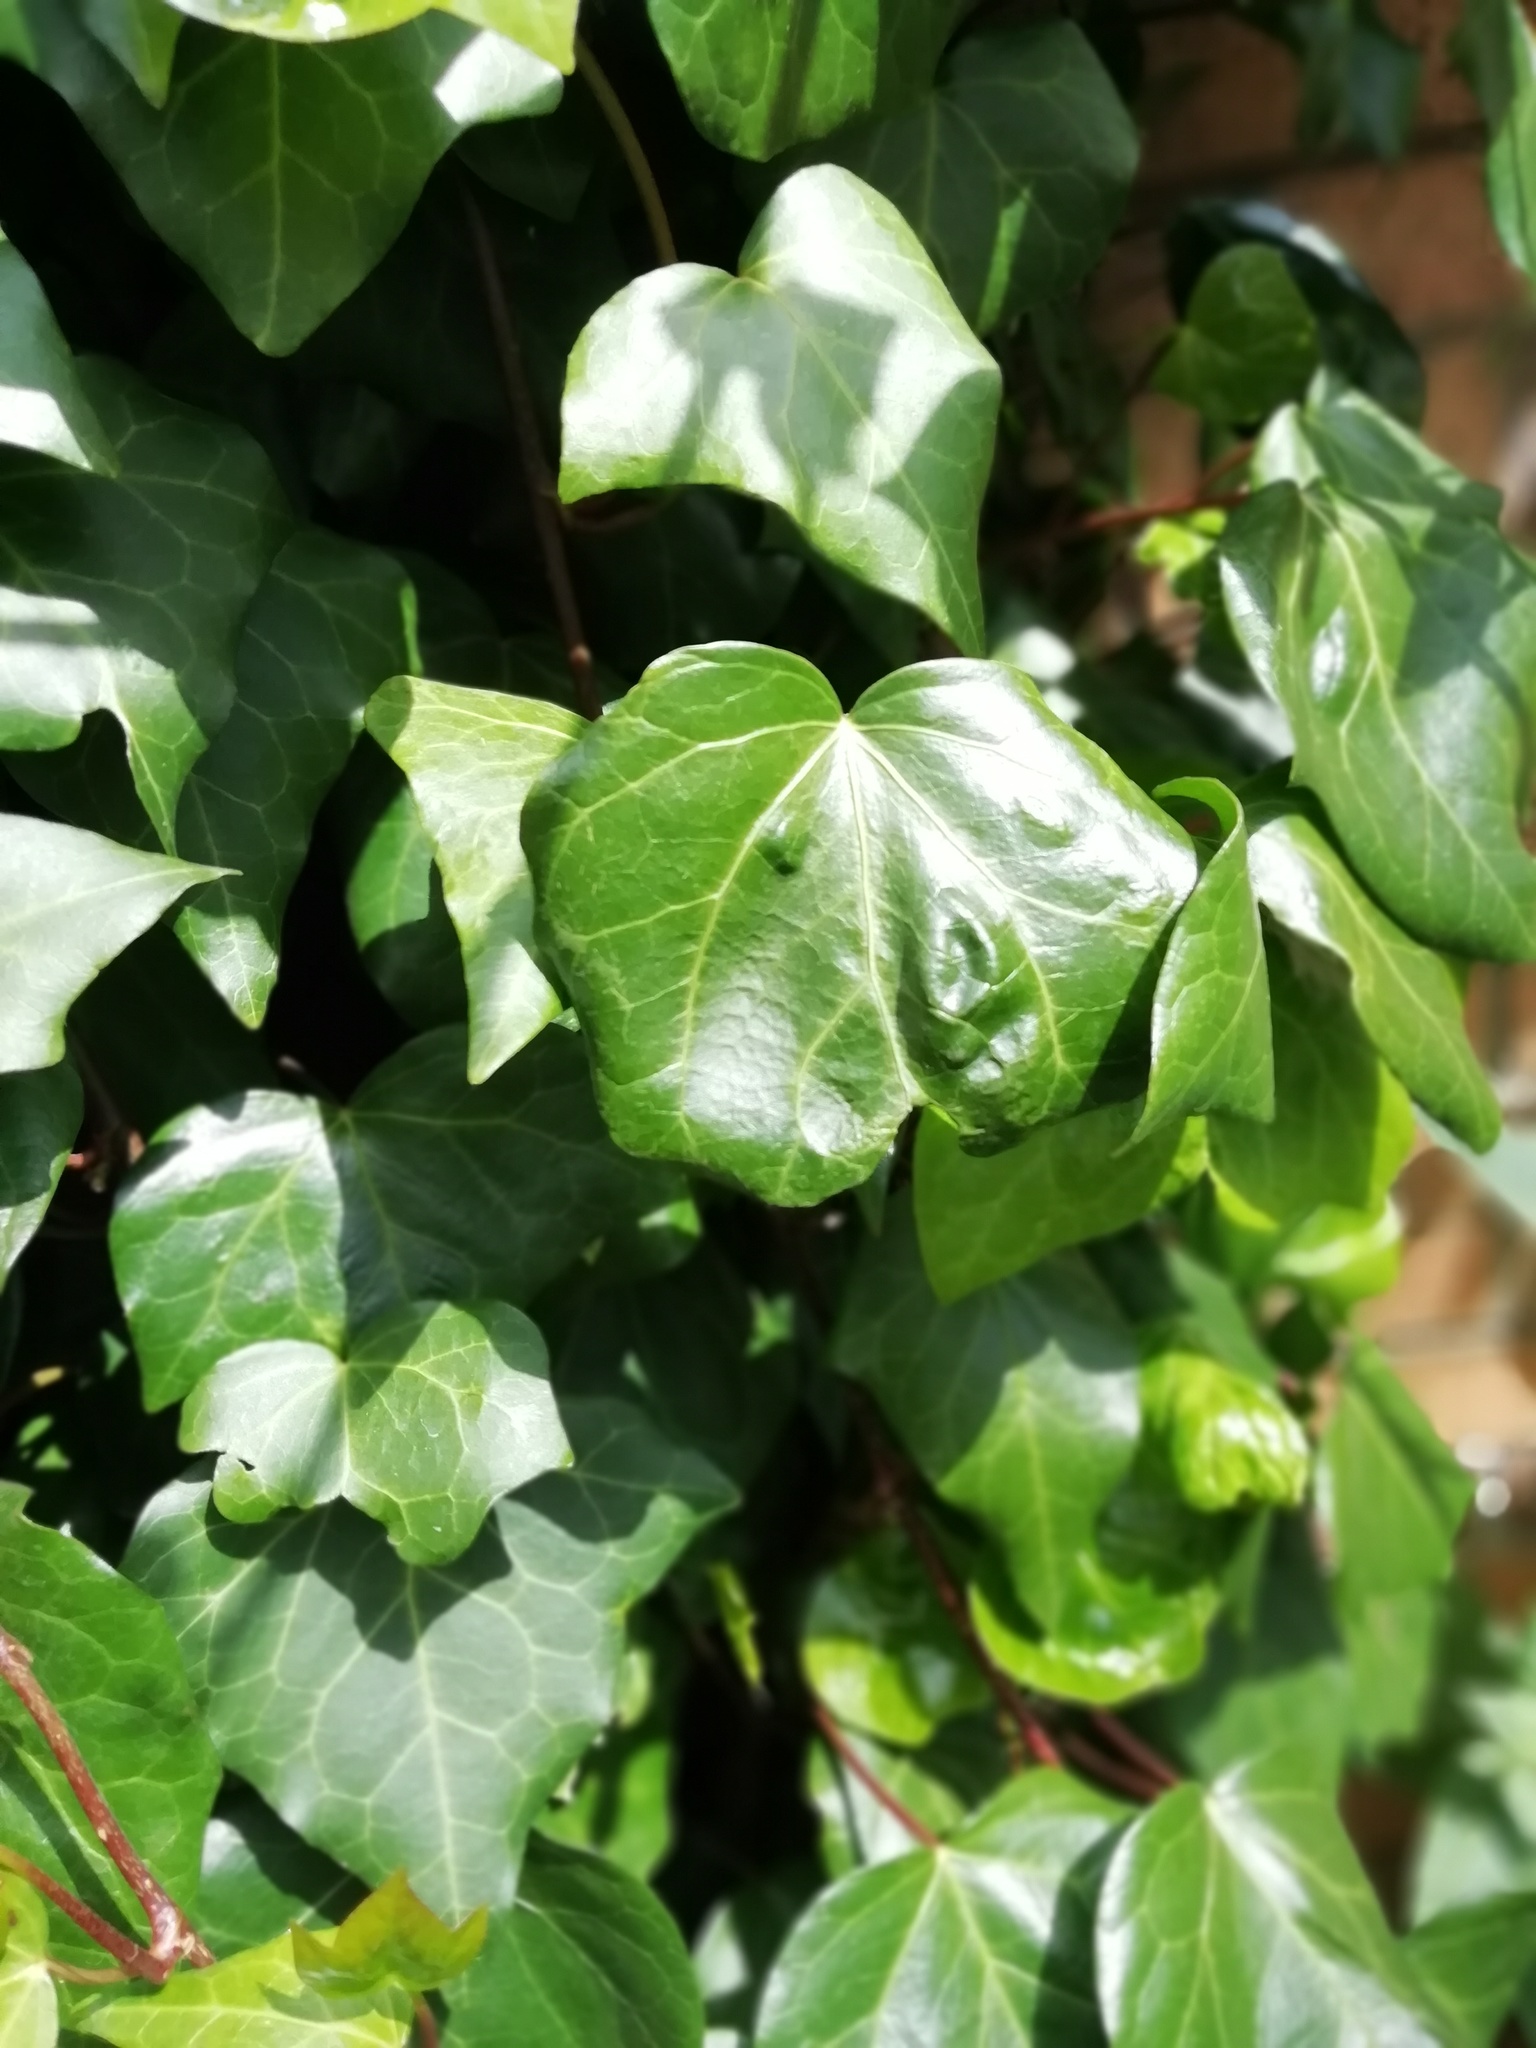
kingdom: Plantae
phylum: Tracheophyta
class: Magnoliopsida
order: Apiales
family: Araliaceae
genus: Hedera
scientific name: Hedera colchica
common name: Persian ivy
